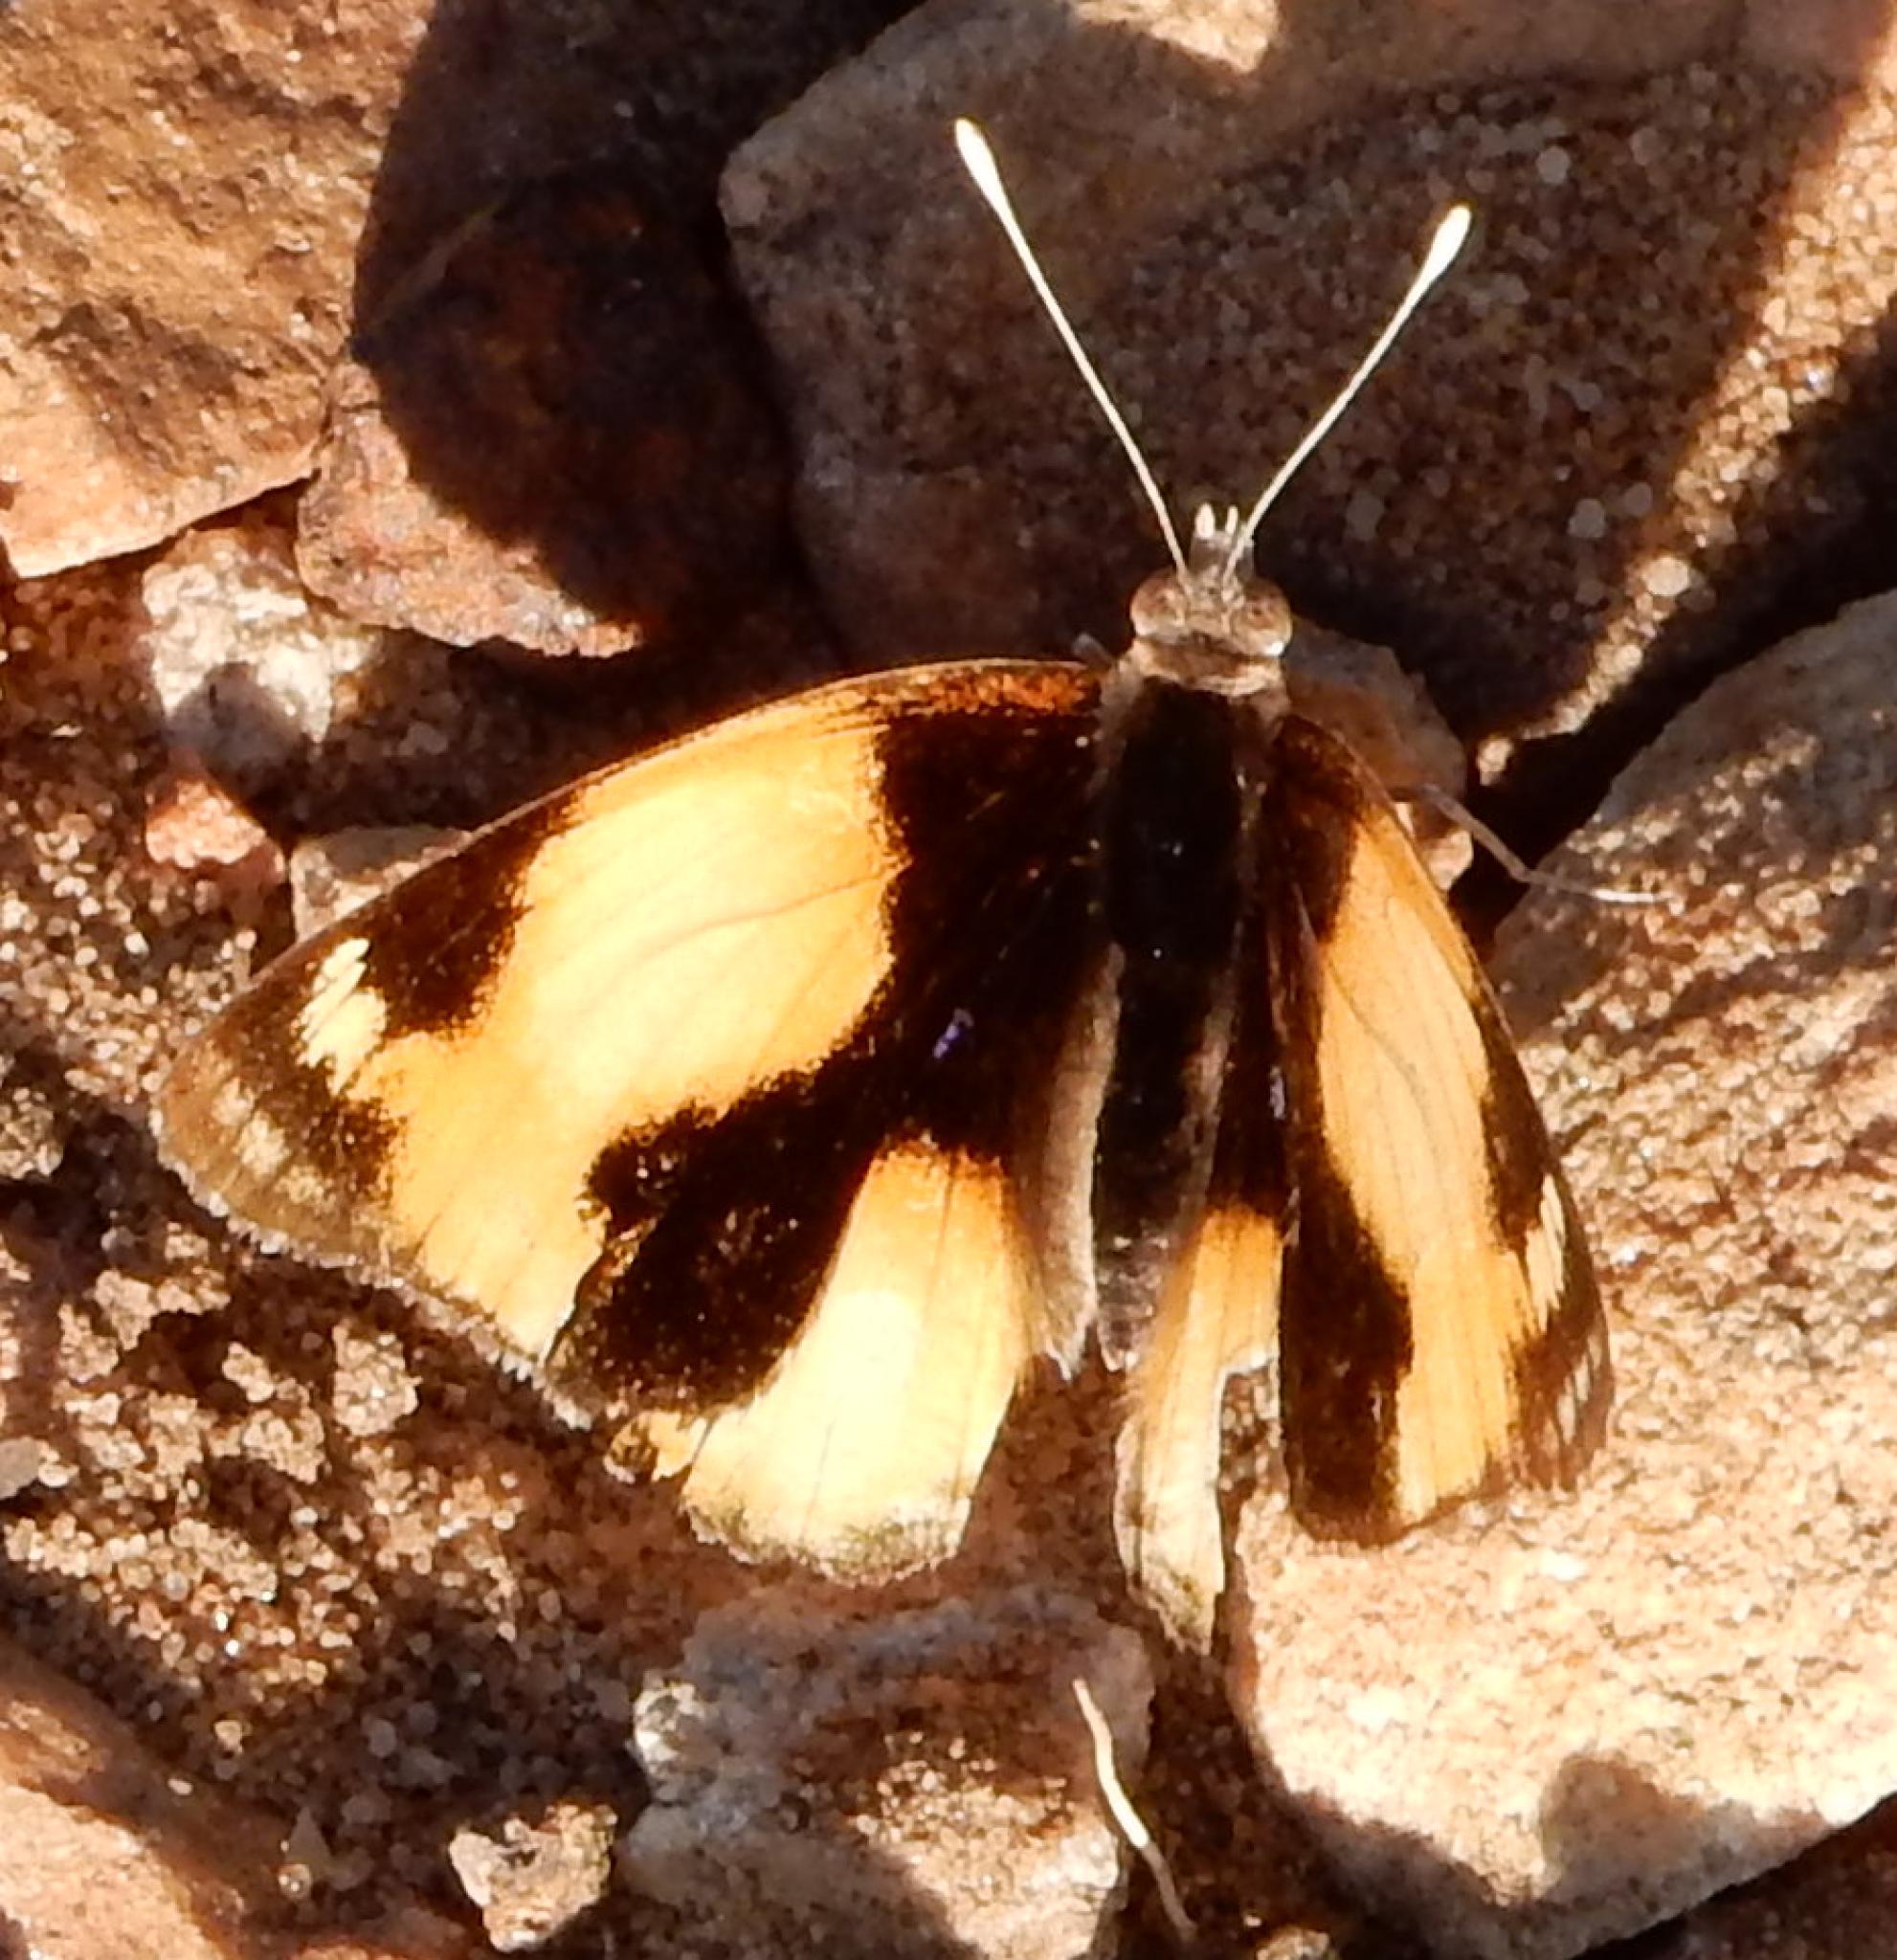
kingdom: Animalia
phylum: Arthropoda
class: Insecta
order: Lepidoptera
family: Nymphalidae
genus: Junonia
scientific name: Junonia hierta
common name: Yellow pansy
